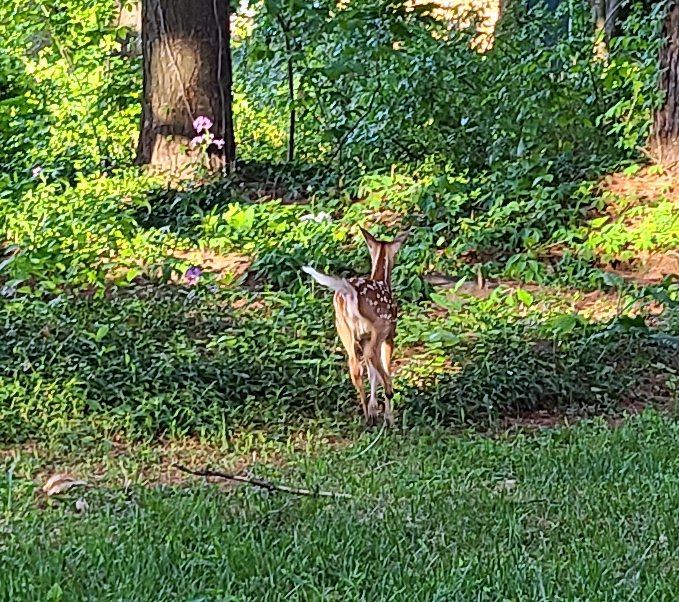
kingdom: Animalia
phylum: Chordata
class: Mammalia
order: Artiodactyla
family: Cervidae
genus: Odocoileus
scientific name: Odocoileus virginianus
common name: White-tailed deer
